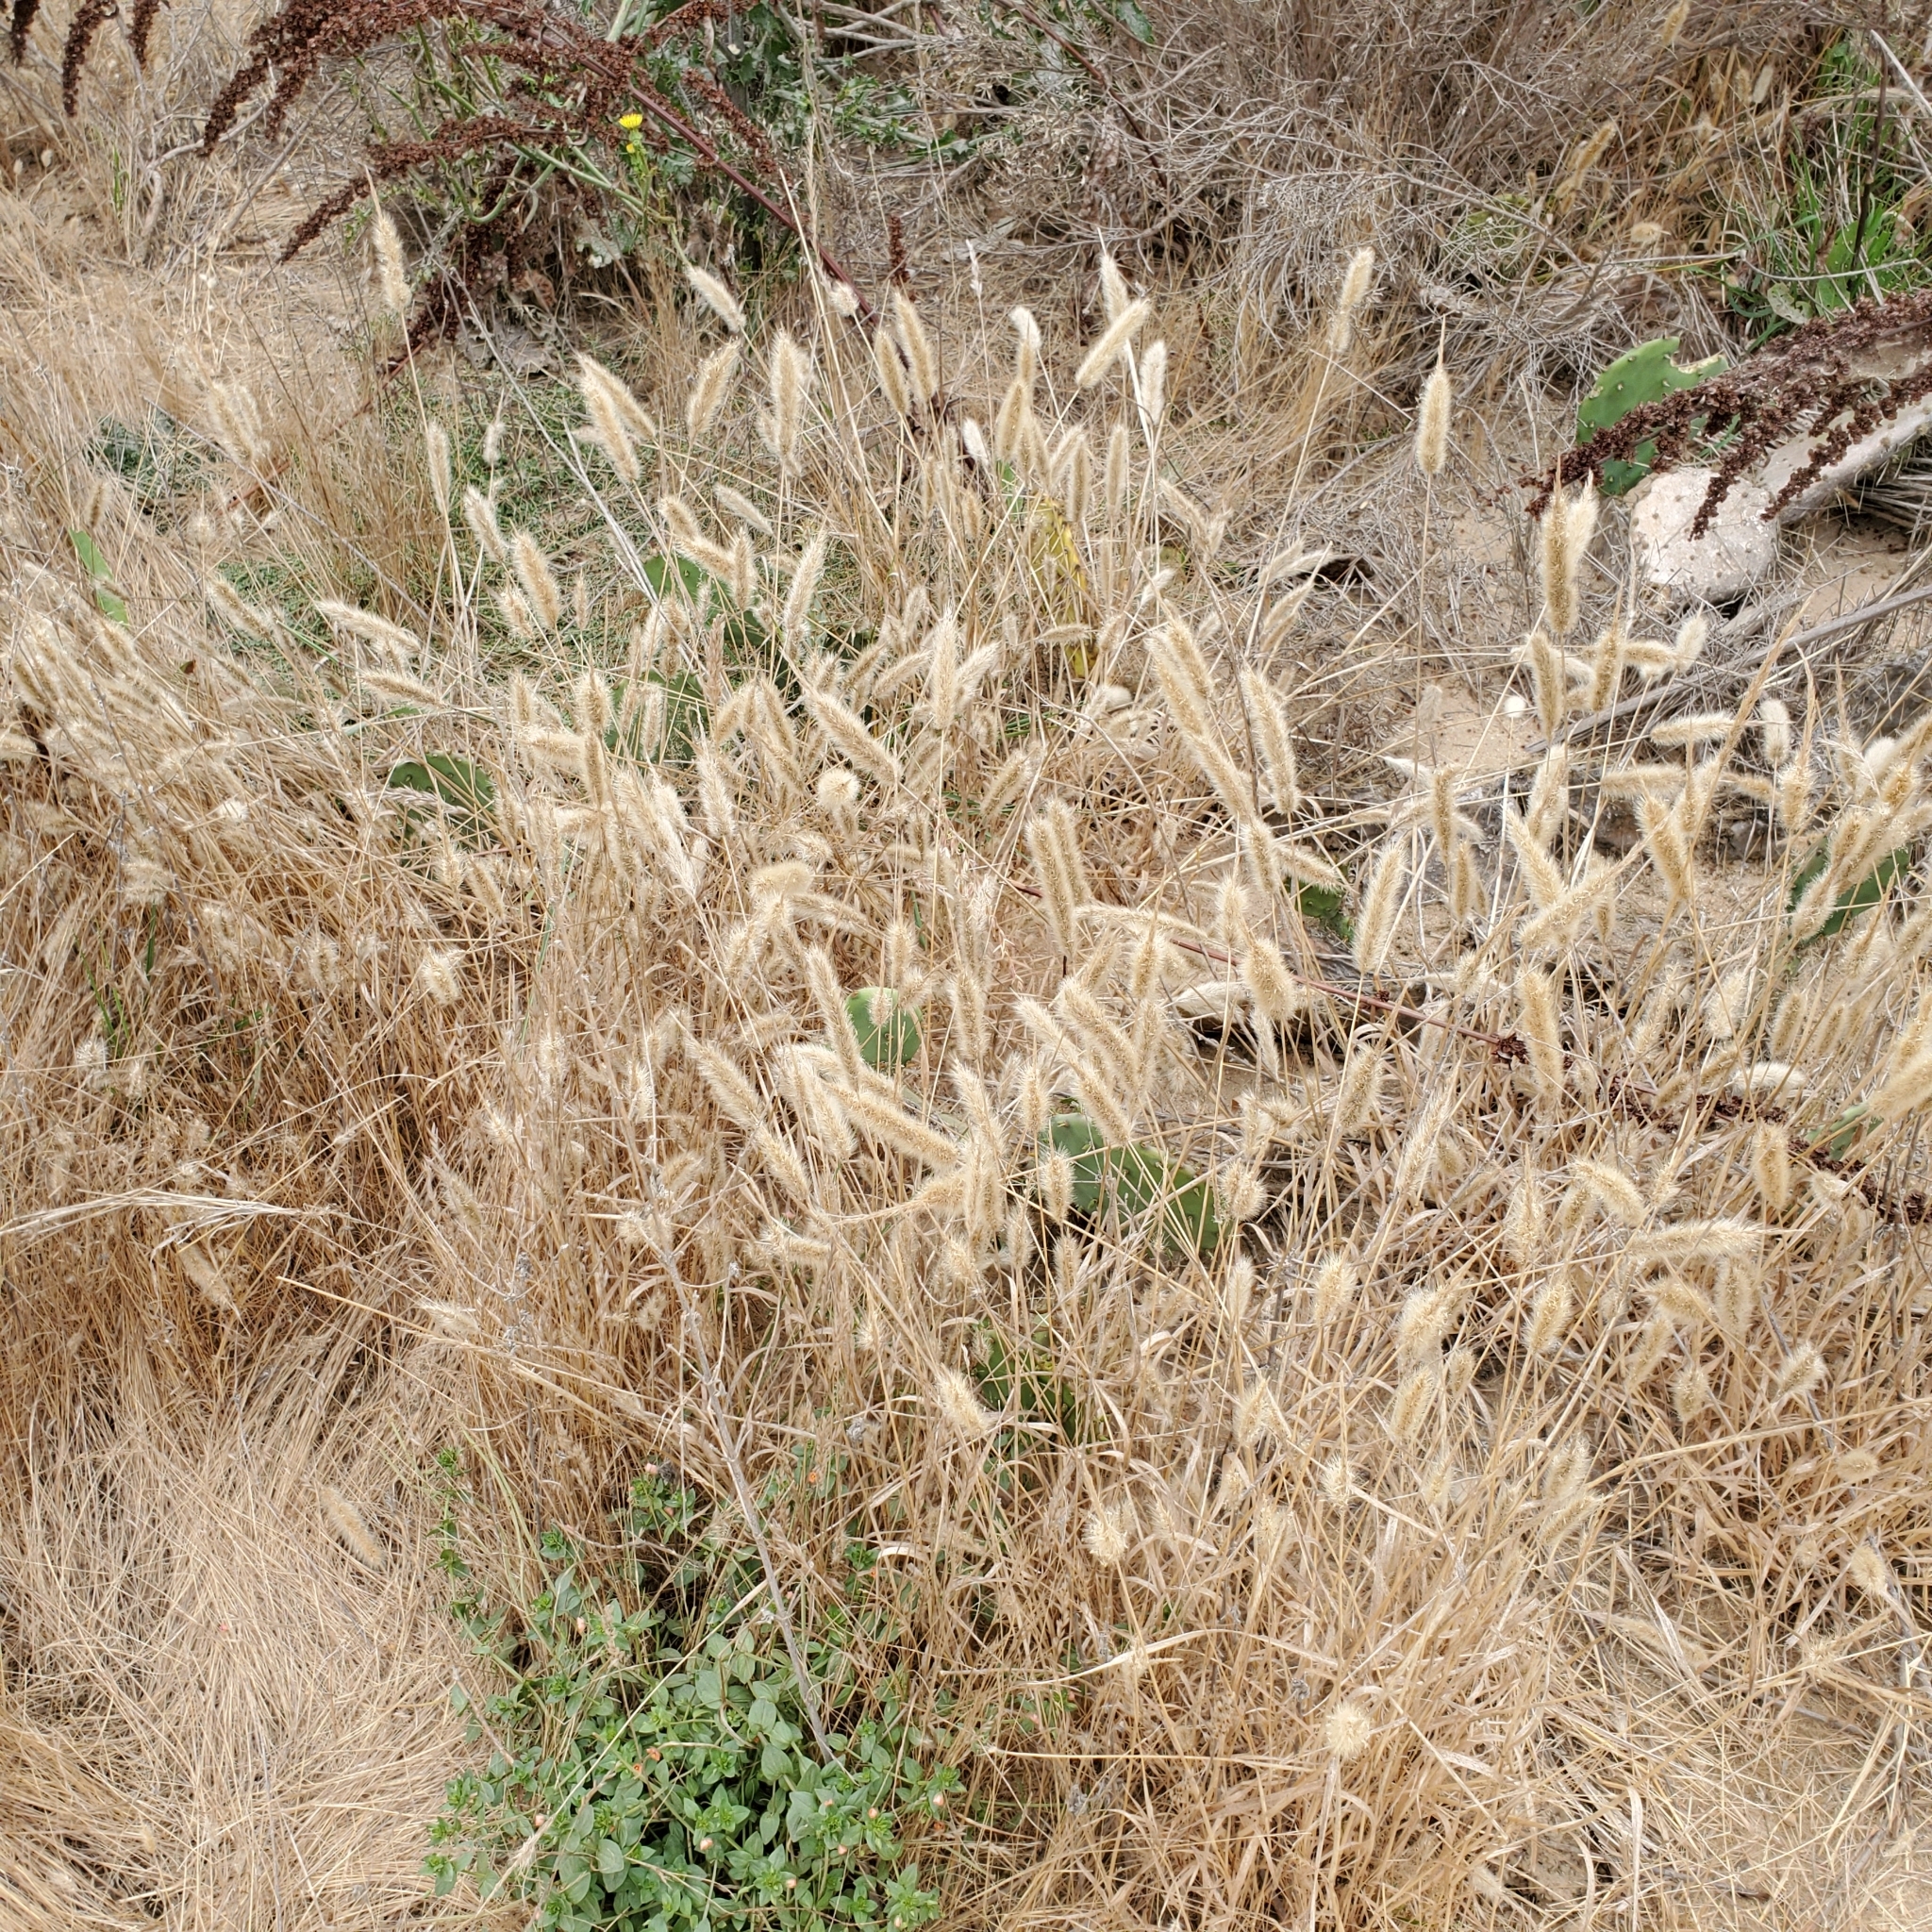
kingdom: Plantae
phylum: Tracheophyta
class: Liliopsida
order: Poales
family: Poaceae
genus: Polypogon
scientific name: Polypogon monspeliensis
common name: Annual rabbitsfoot grass
